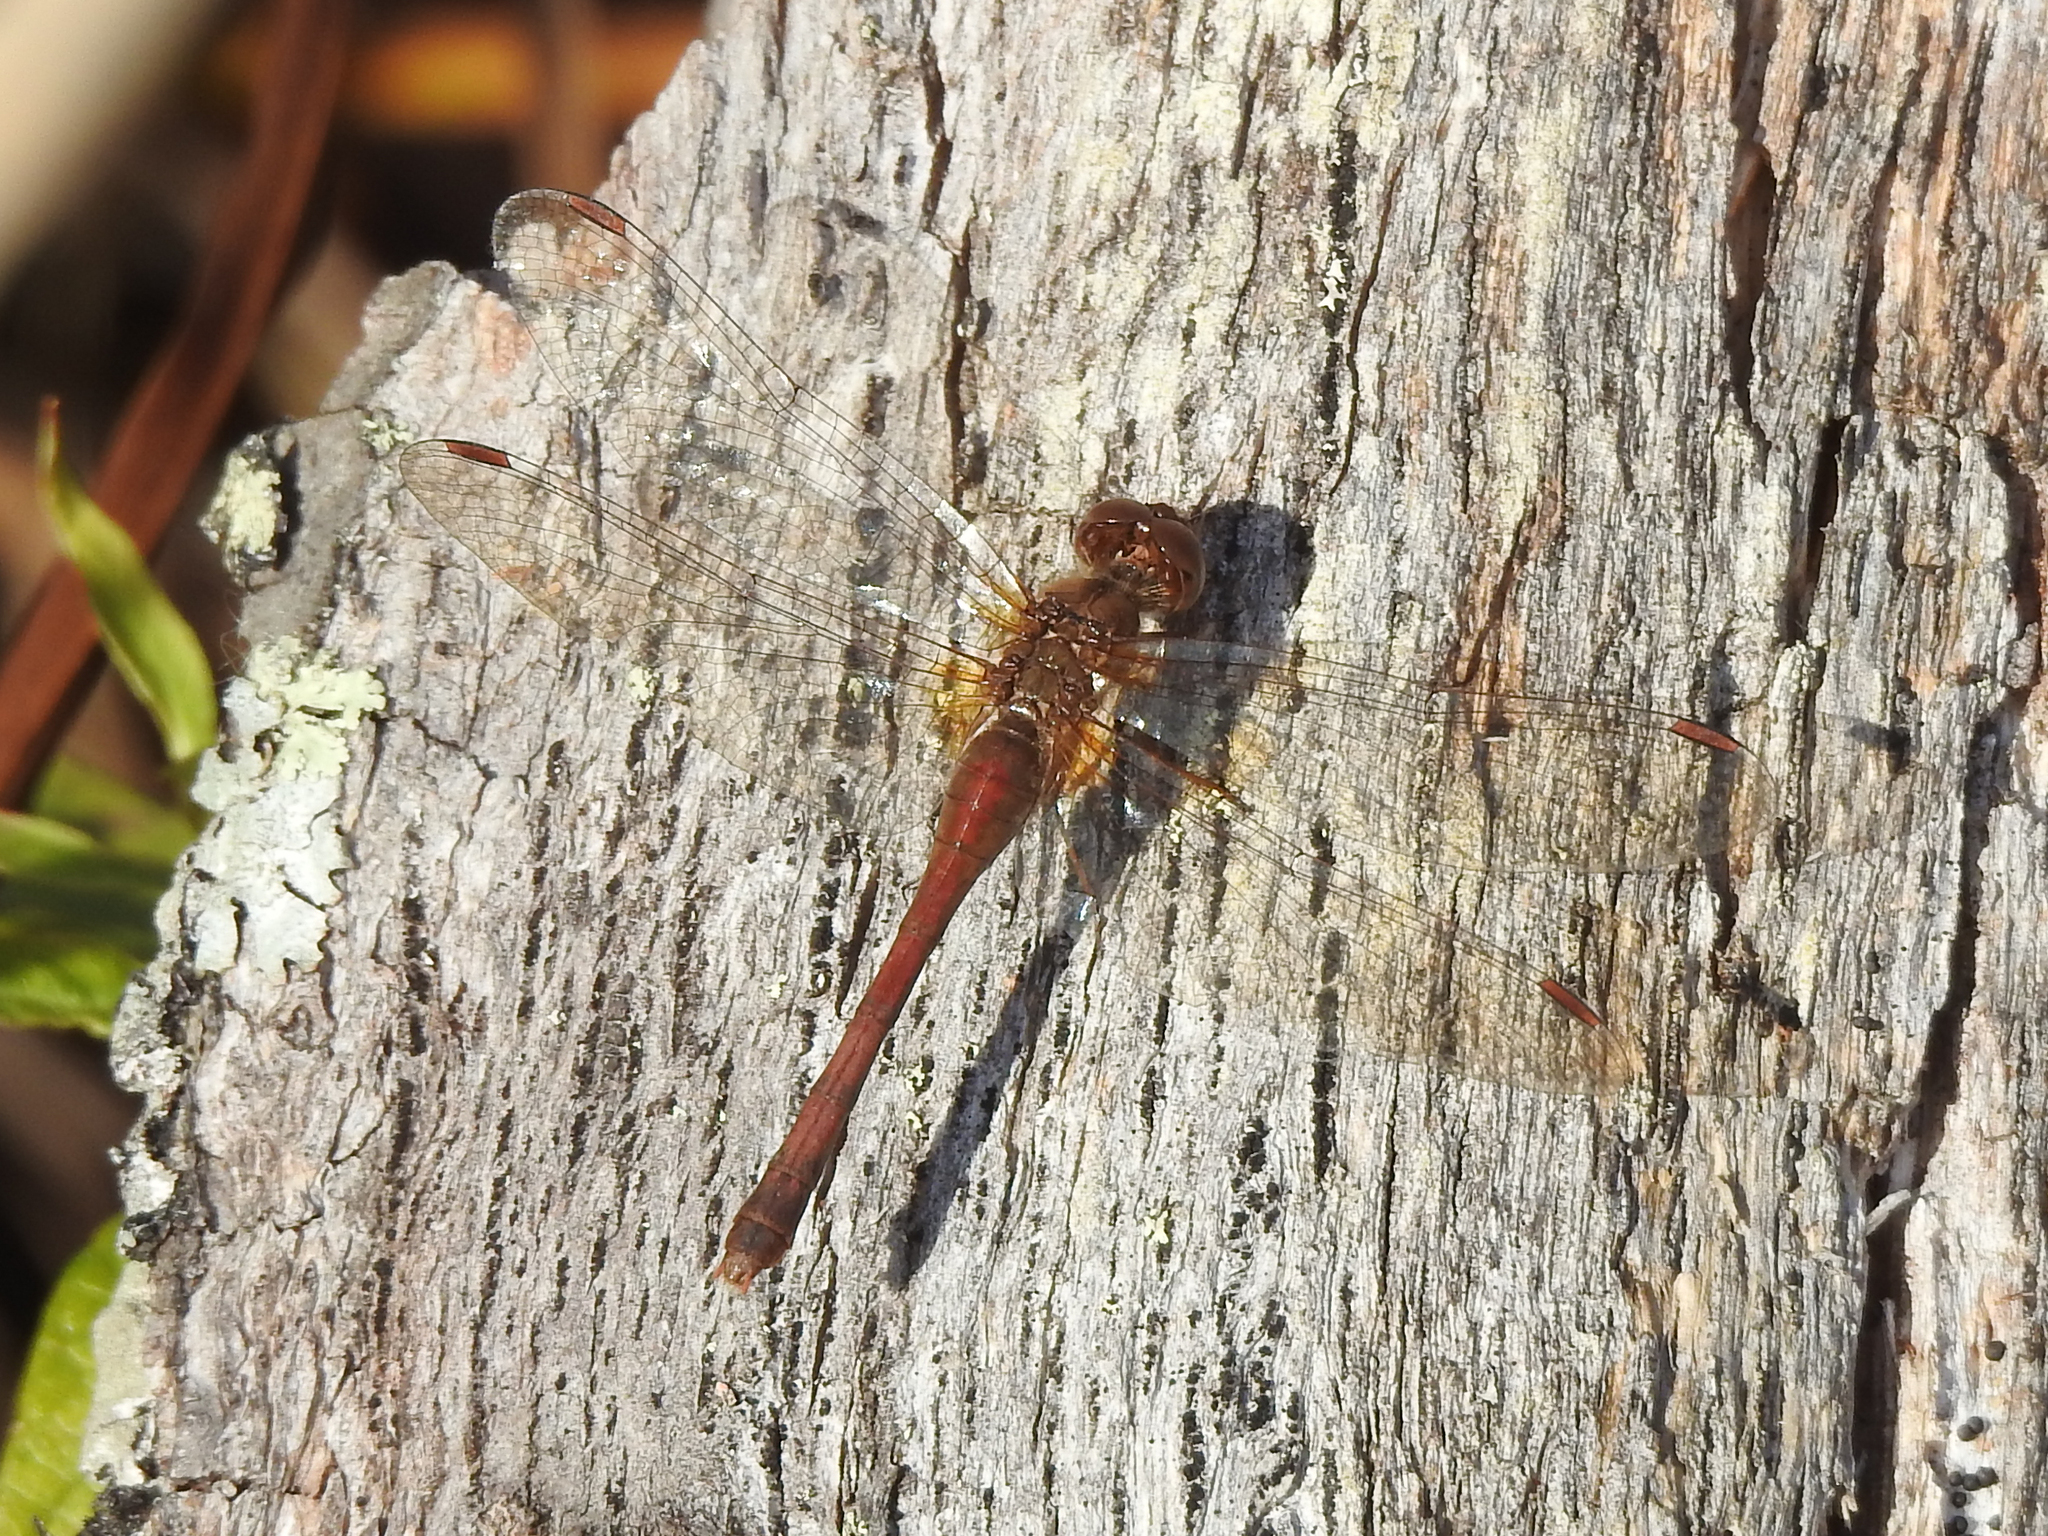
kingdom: Animalia
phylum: Arthropoda
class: Insecta
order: Odonata
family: Libellulidae
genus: Sympetrum
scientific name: Sympetrum vicinum
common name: Autumn meadowhawk
